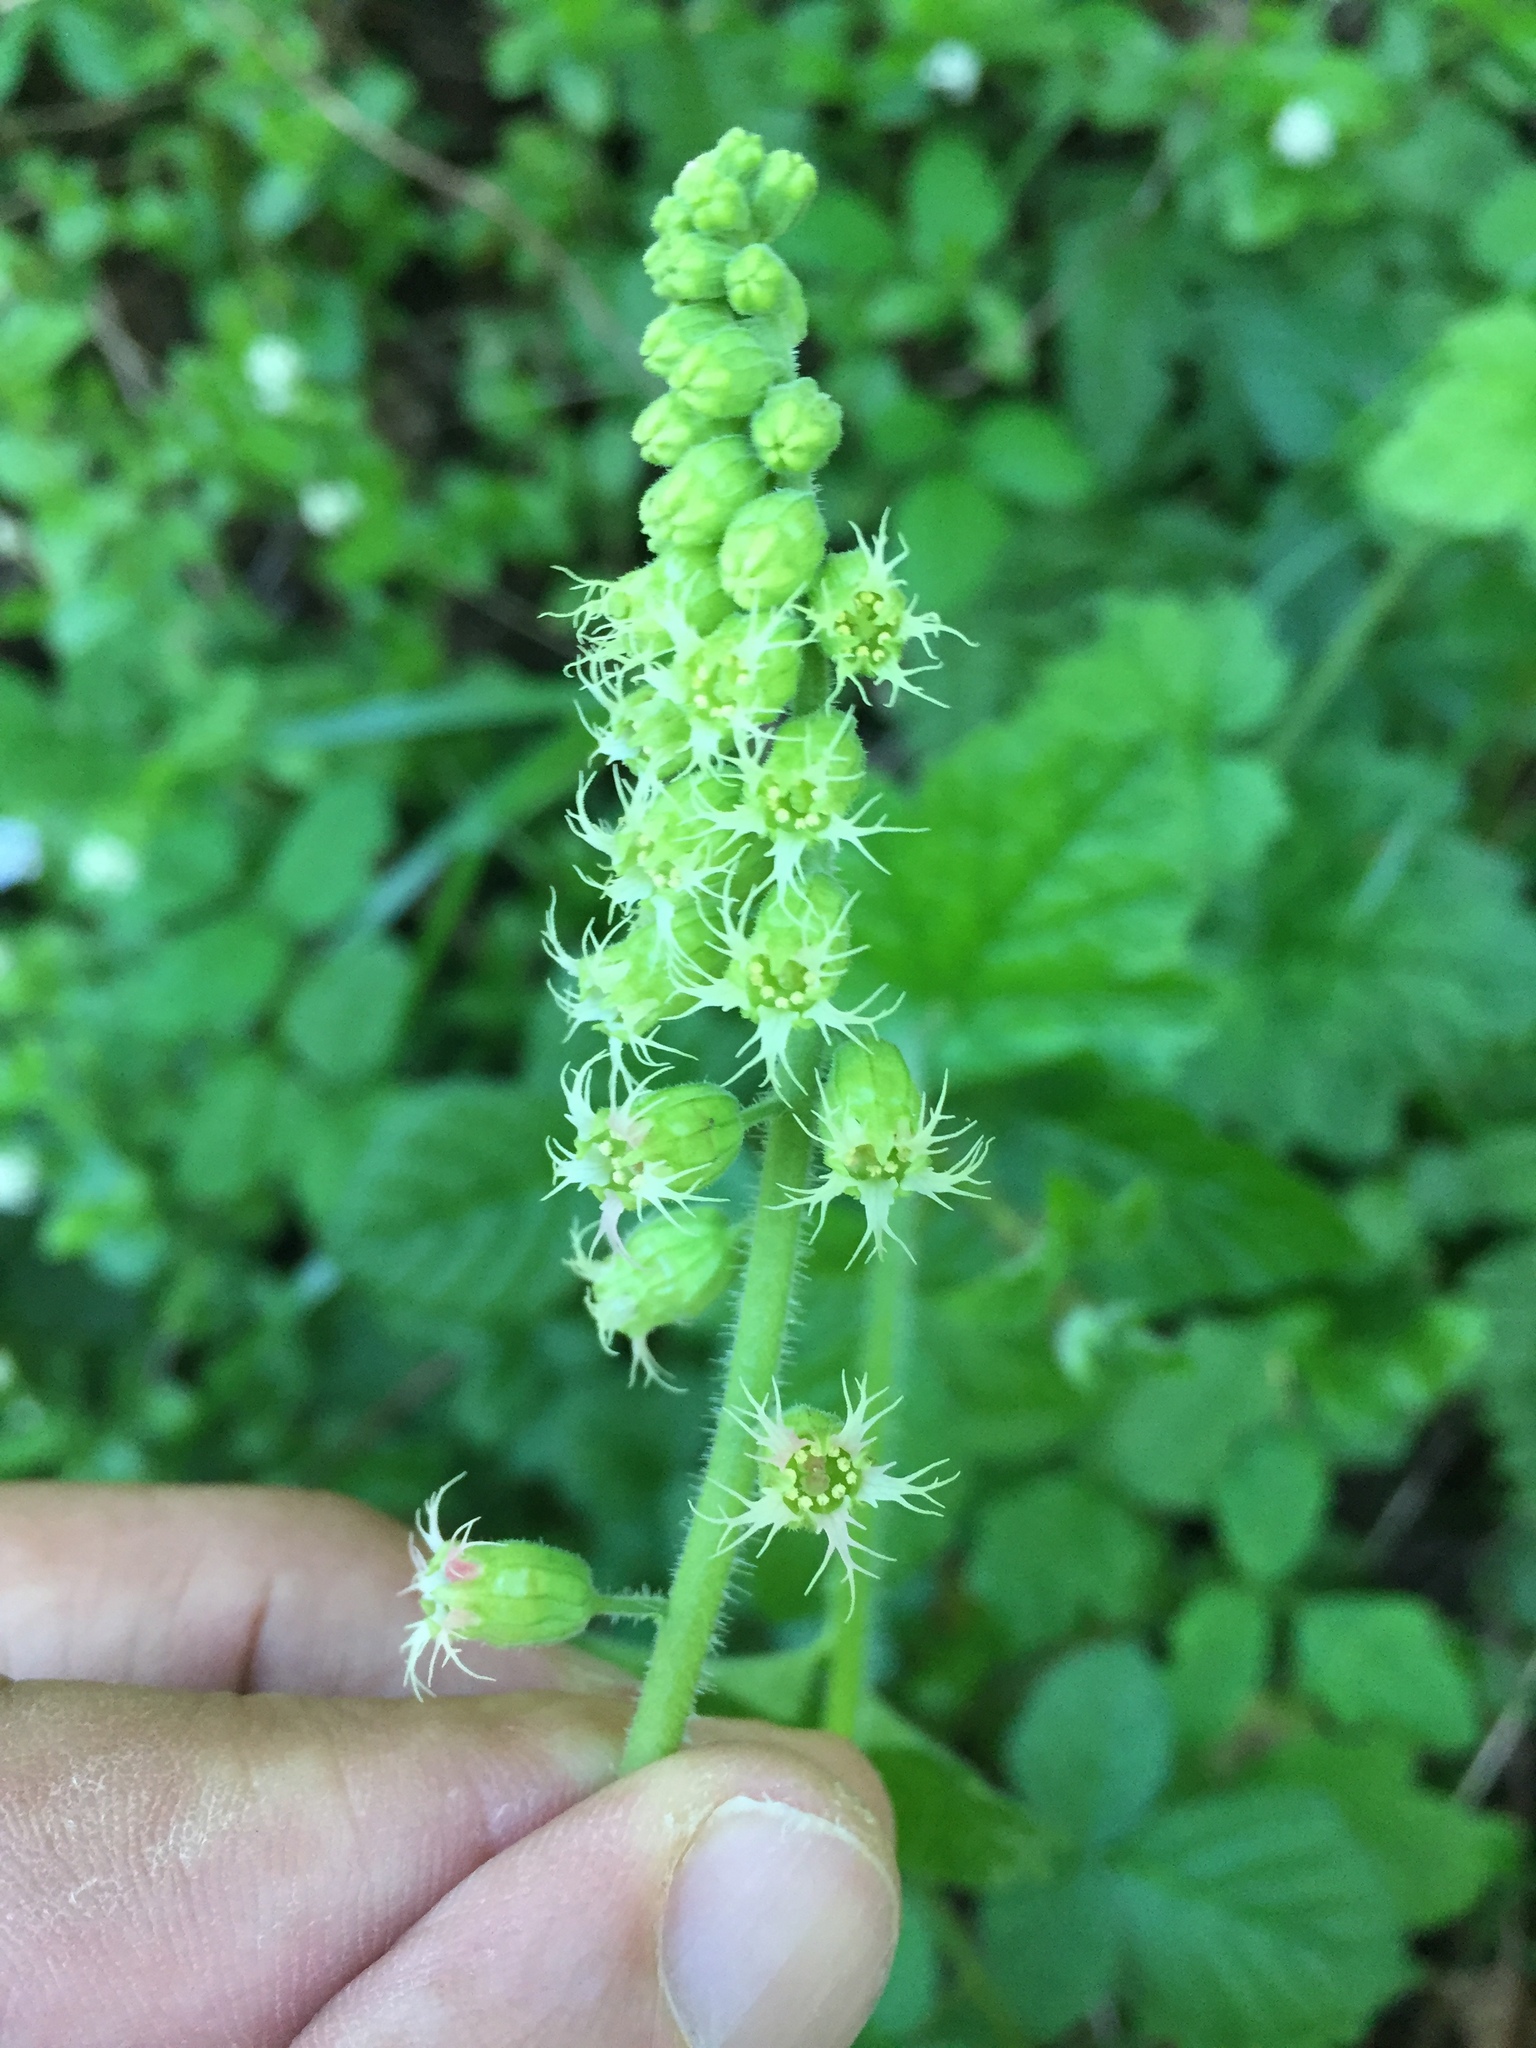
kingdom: Plantae
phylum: Tracheophyta
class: Magnoliopsida
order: Saxifragales
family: Saxifragaceae
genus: Tellima
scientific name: Tellima grandiflora
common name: Fringecups
